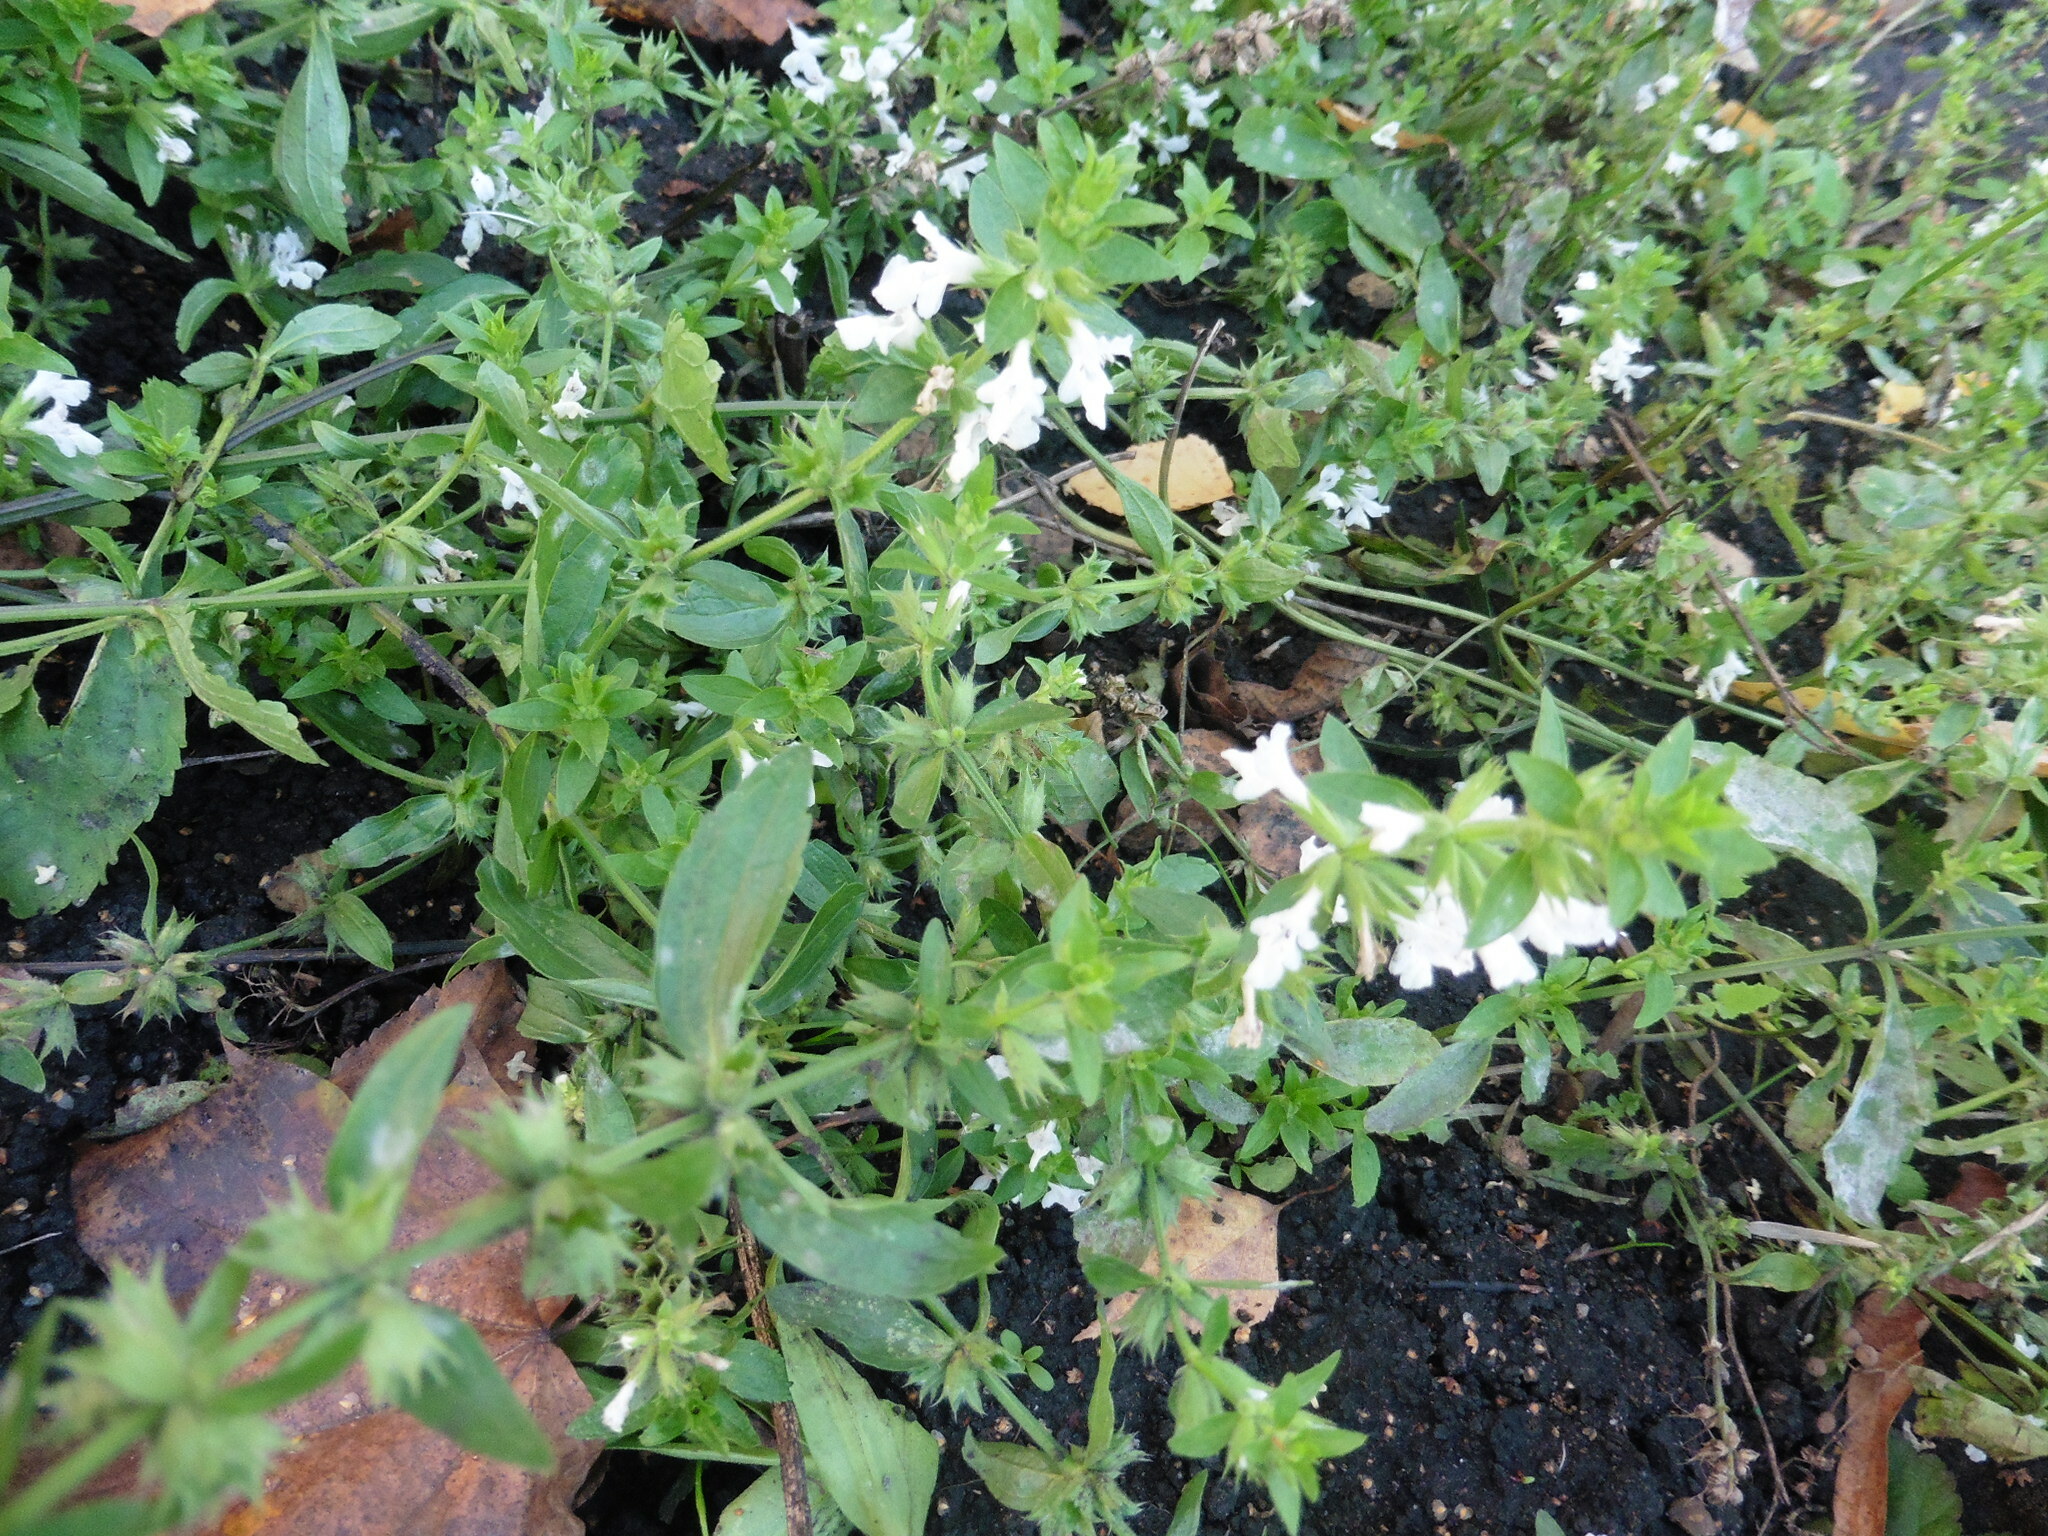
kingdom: Plantae
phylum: Tracheophyta
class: Magnoliopsida
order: Lamiales
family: Lamiaceae
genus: Stachys
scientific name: Stachys annua
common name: Annual yellow-woundwort
